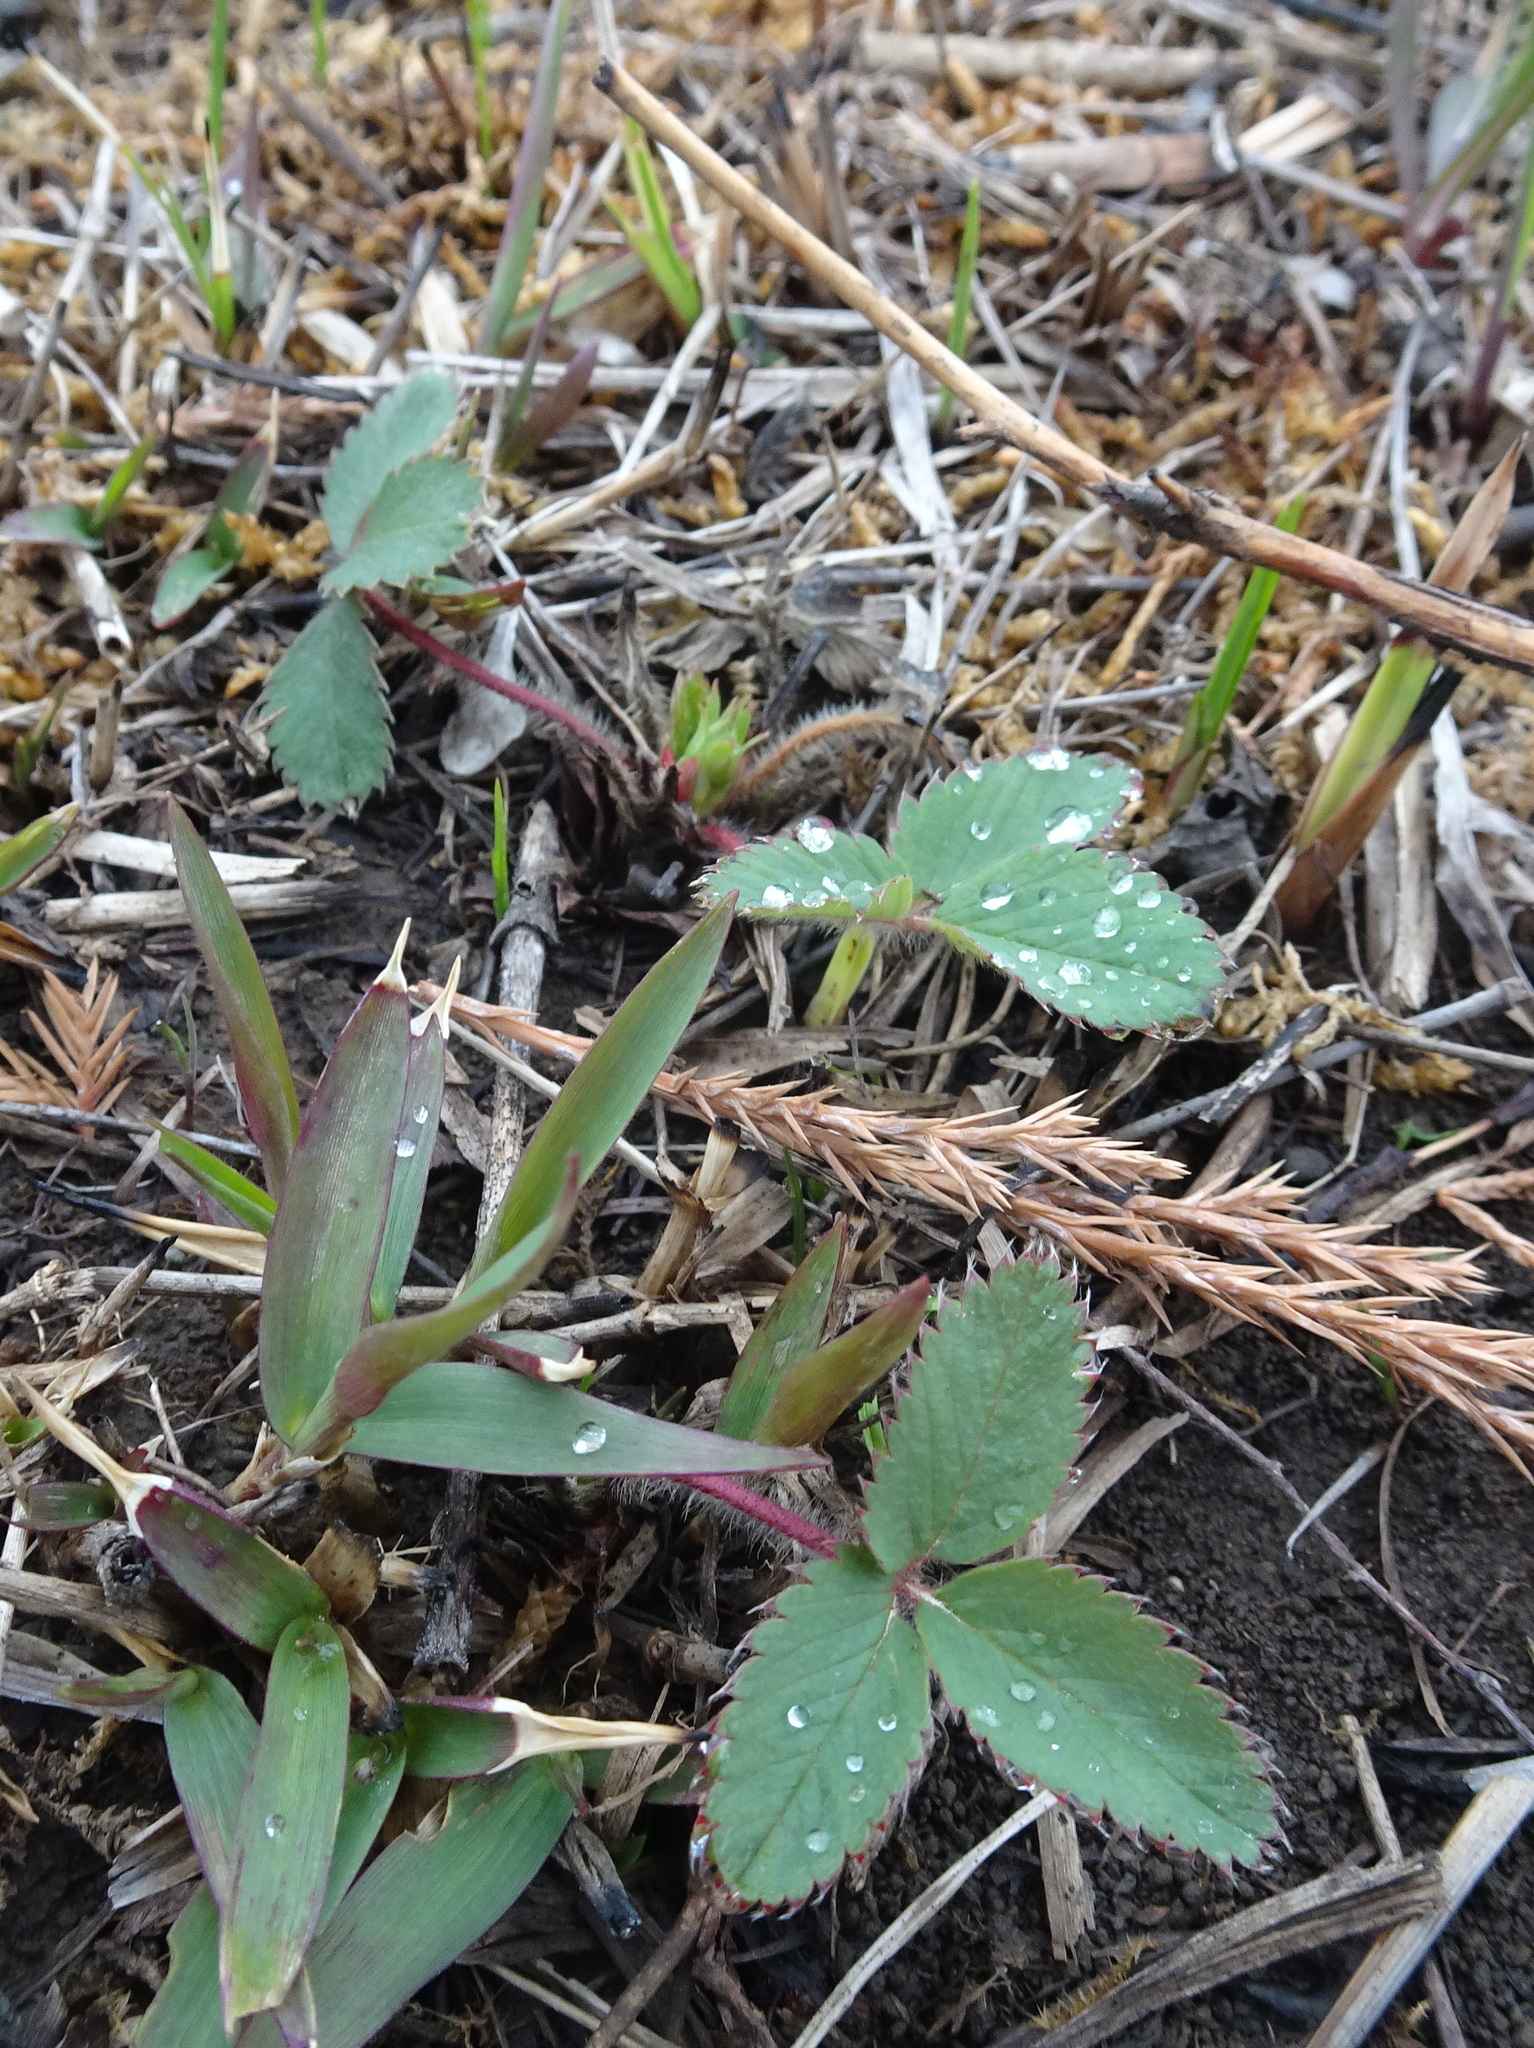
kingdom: Plantae
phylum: Tracheophyta
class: Magnoliopsida
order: Rosales
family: Rosaceae
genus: Fragaria
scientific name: Fragaria virginiana
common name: Thickleaved wild strawberry
